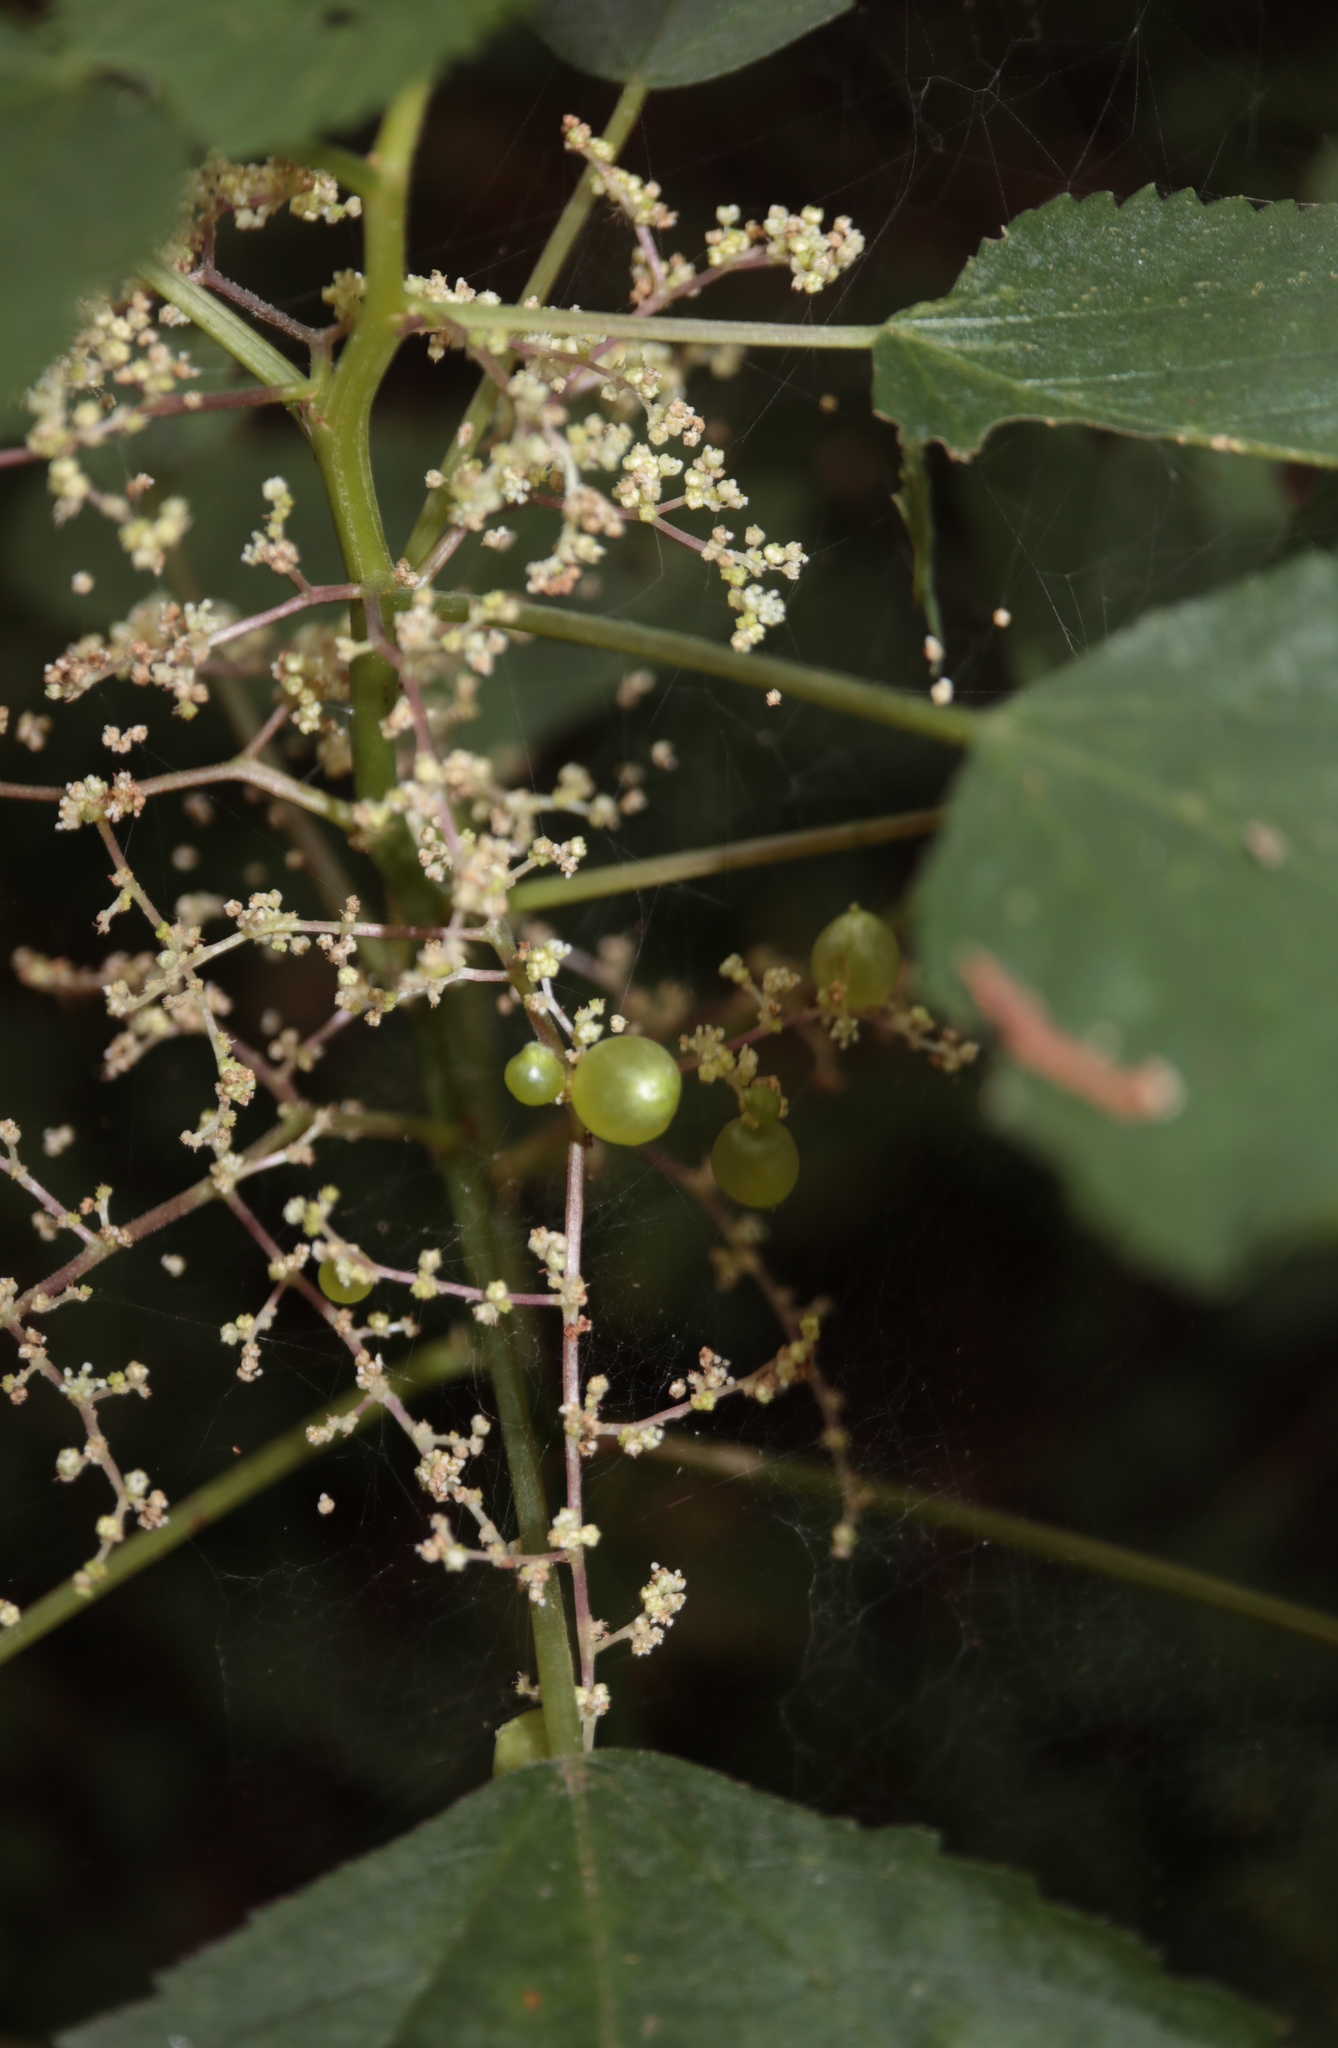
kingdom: Animalia
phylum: Arthropoda
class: Insecta
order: Diptera
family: Cecidomyiidae
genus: Dasineura
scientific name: Dasineura investita
